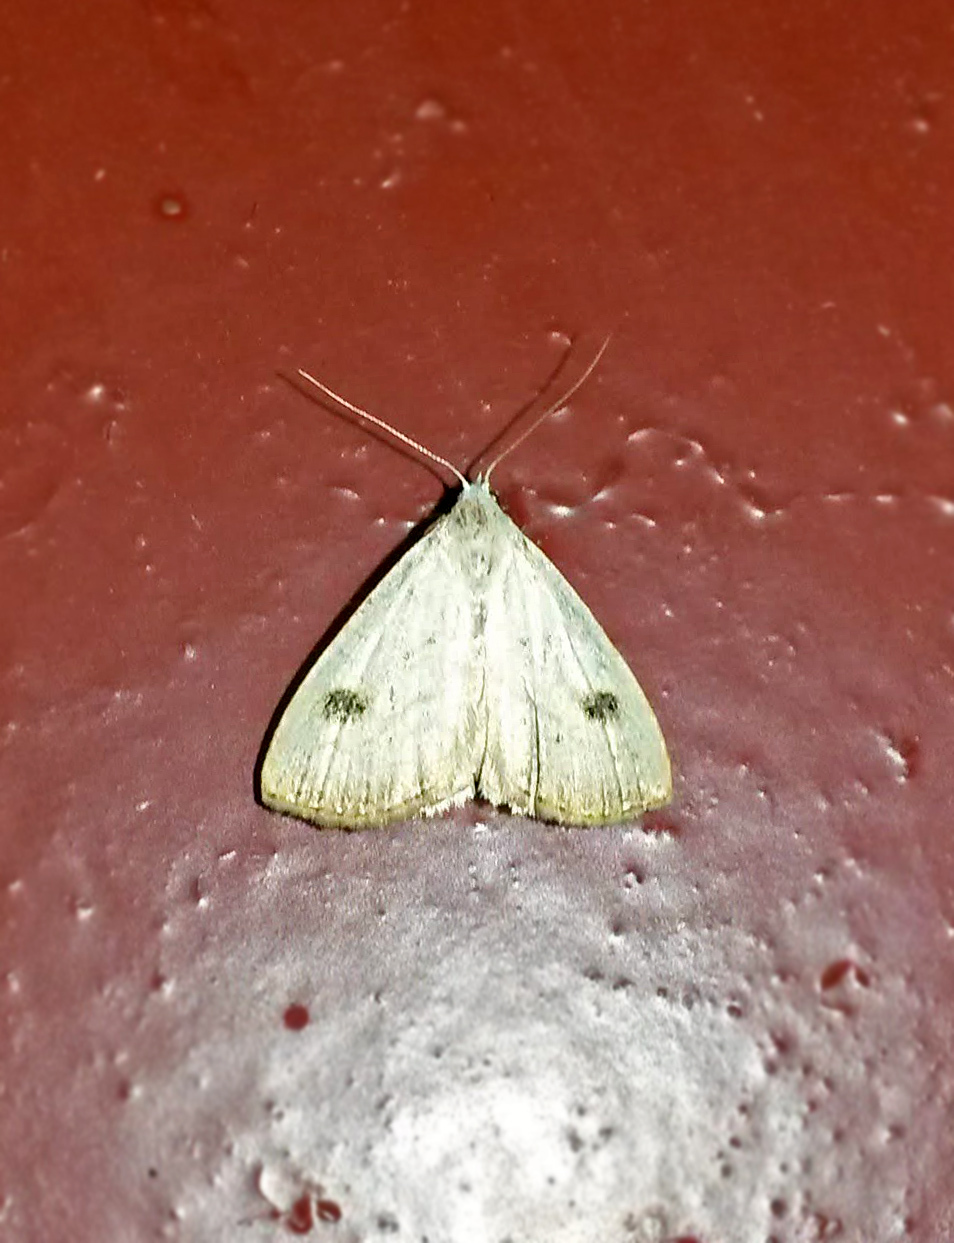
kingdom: Animalia
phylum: Arthropoda
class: Insecta
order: Lepidoptera
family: Erebidae
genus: Rivula
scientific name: Rivula sericealis
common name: Straw dot
